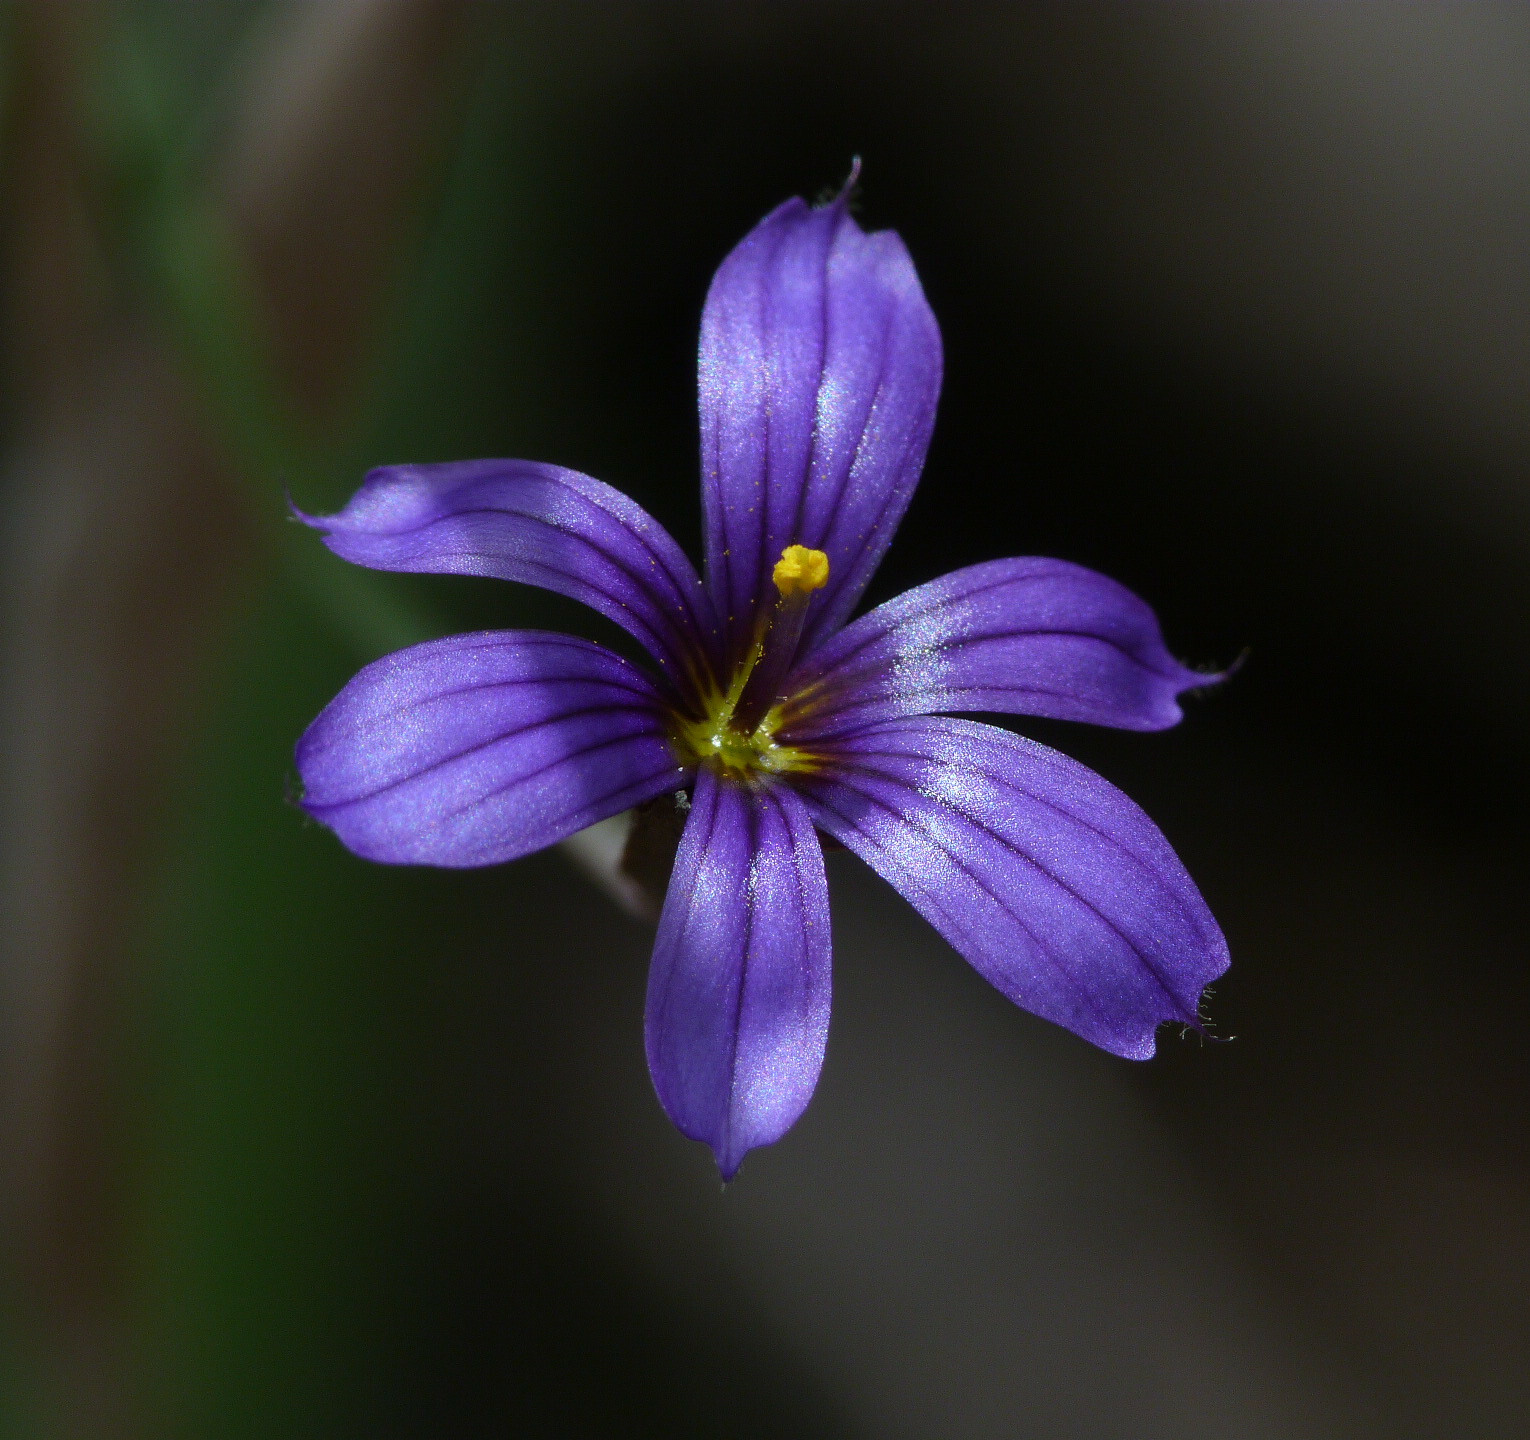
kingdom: Plantae
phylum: Tracheophyta
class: Liliopsida
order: Asparagales
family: Iridaceae
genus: Sisyrinchium
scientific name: Sisyrinchium chilense
